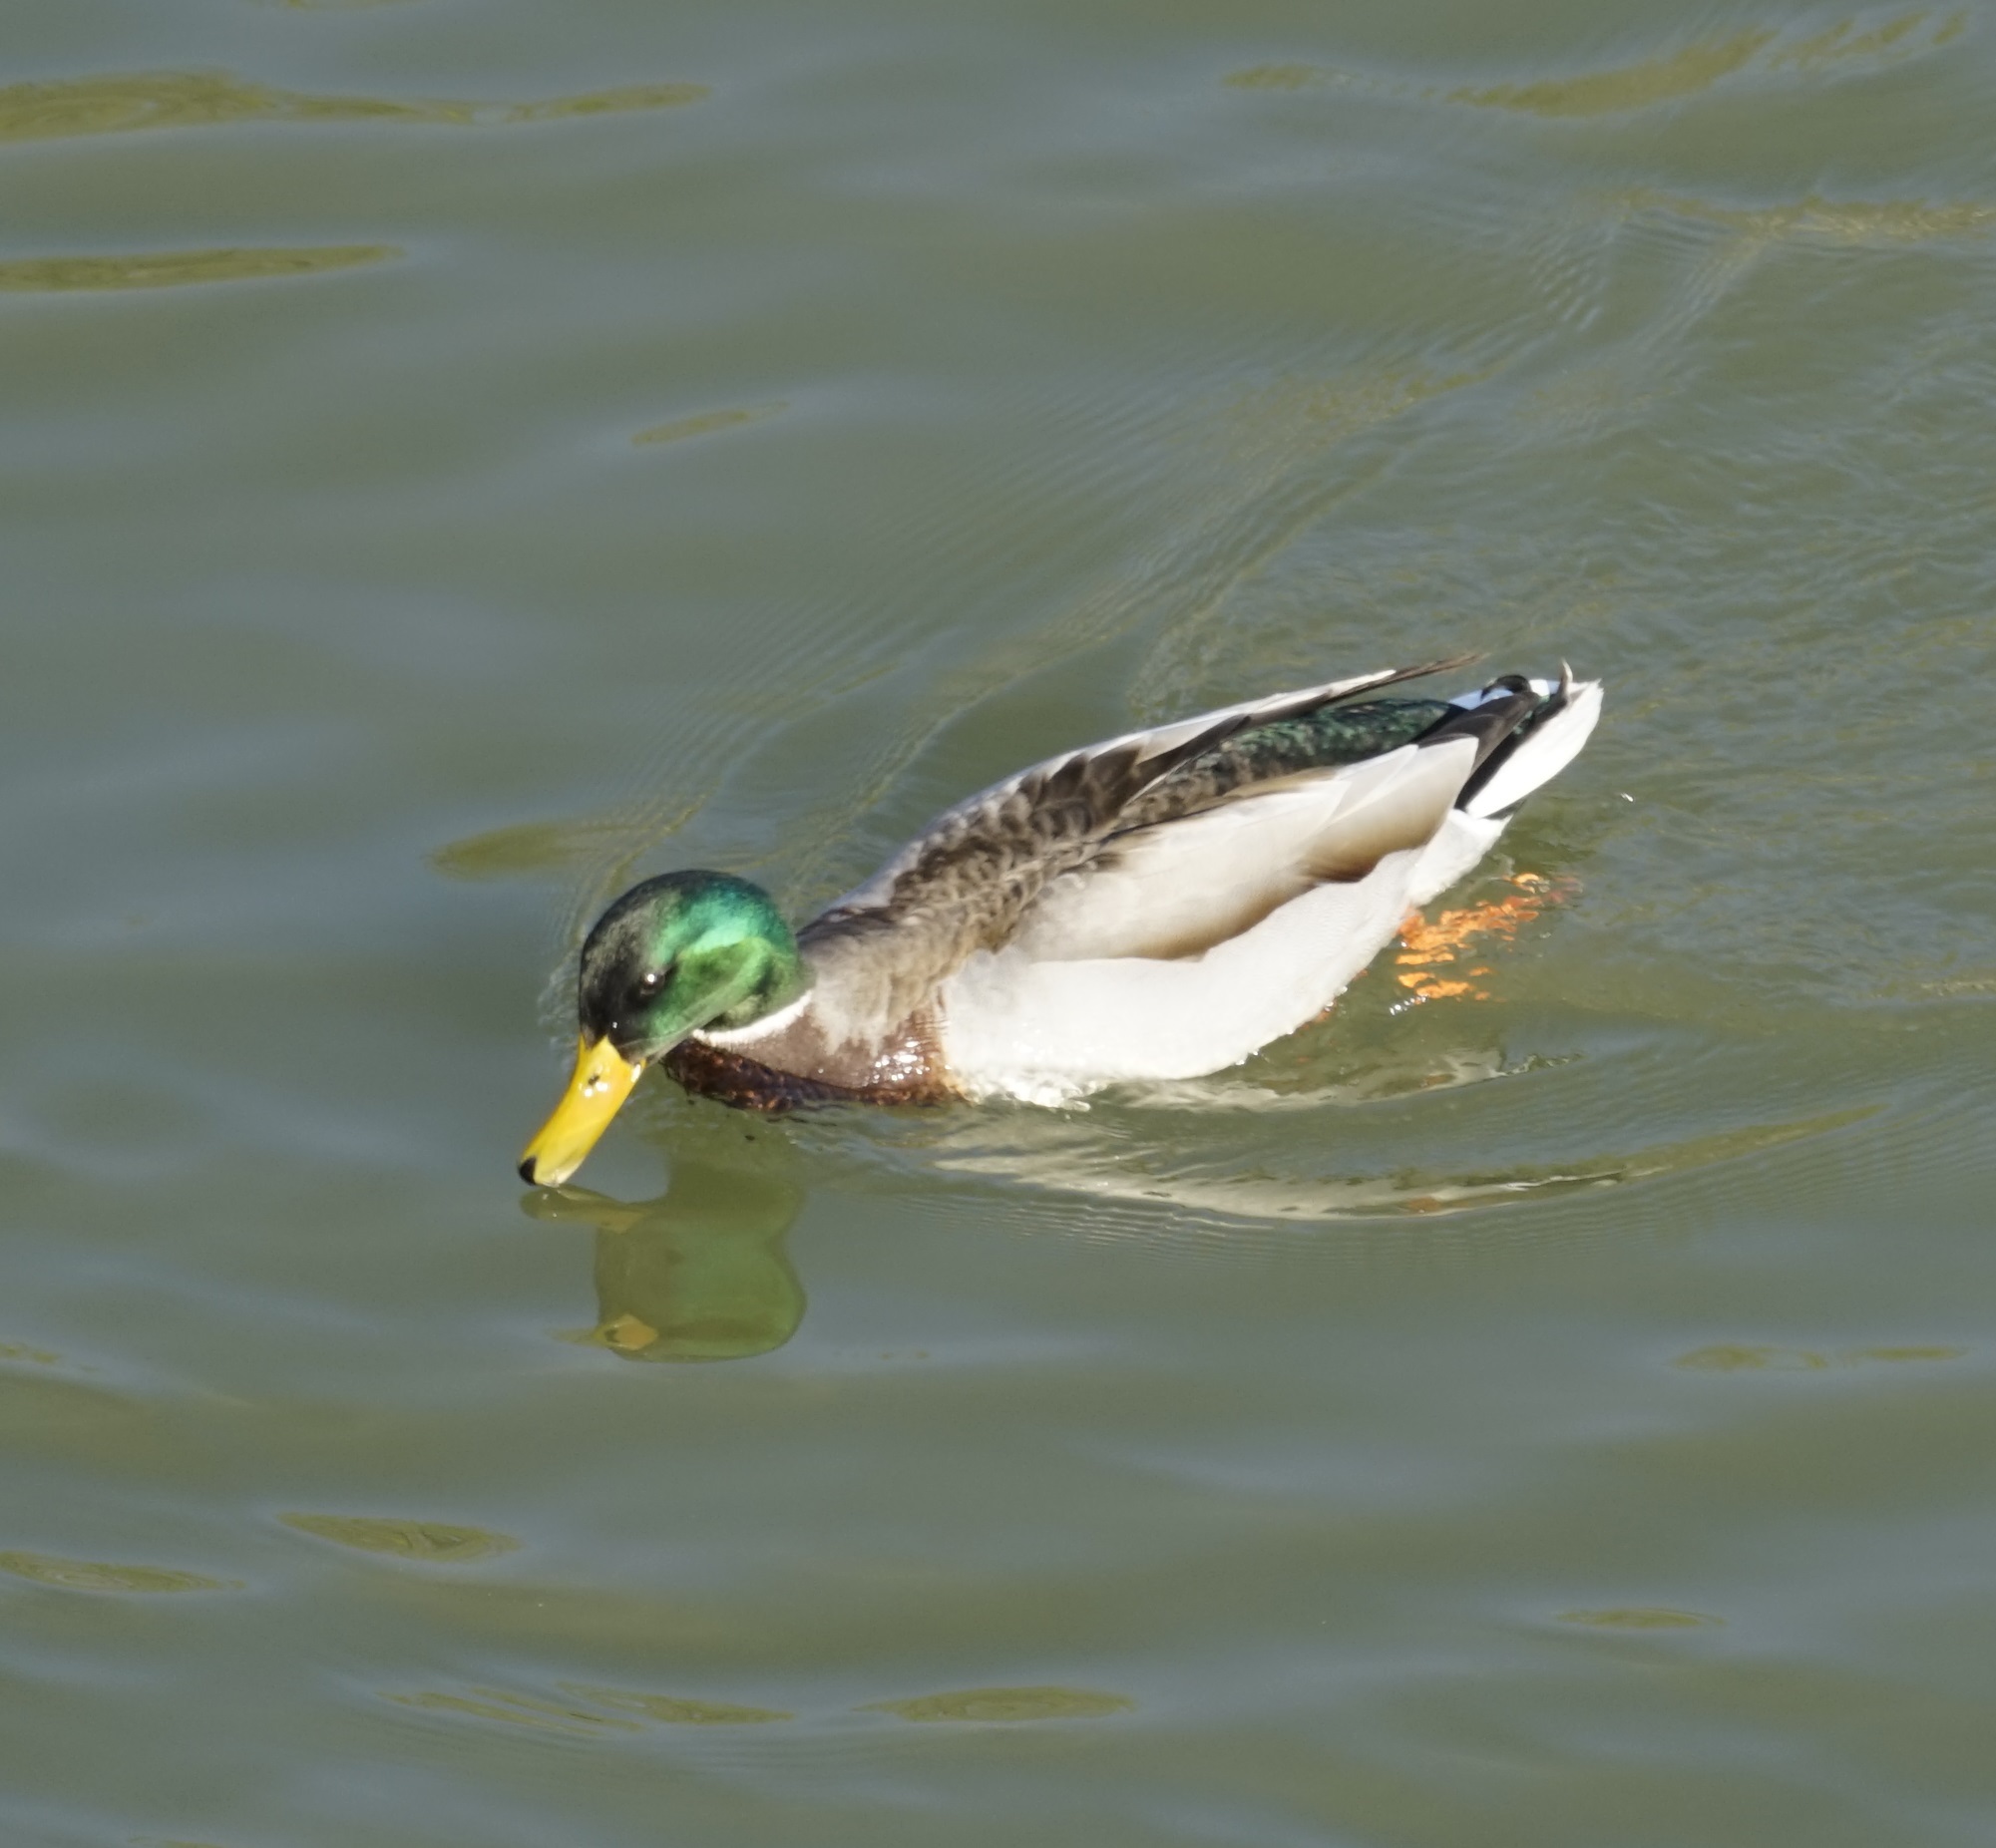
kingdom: Animalia
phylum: Chordata
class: Aves
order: Anseriformes
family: Anatidae
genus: Anas
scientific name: Anas platyrhynchos
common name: Mallard
